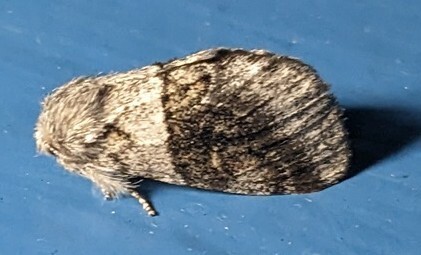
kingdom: Animalia
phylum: Arthropoda
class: Insecta
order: Lepidoptera
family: Notodontidae
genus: Gluphisia
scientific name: Gluphisia septentrionis
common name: Common gluphisia
